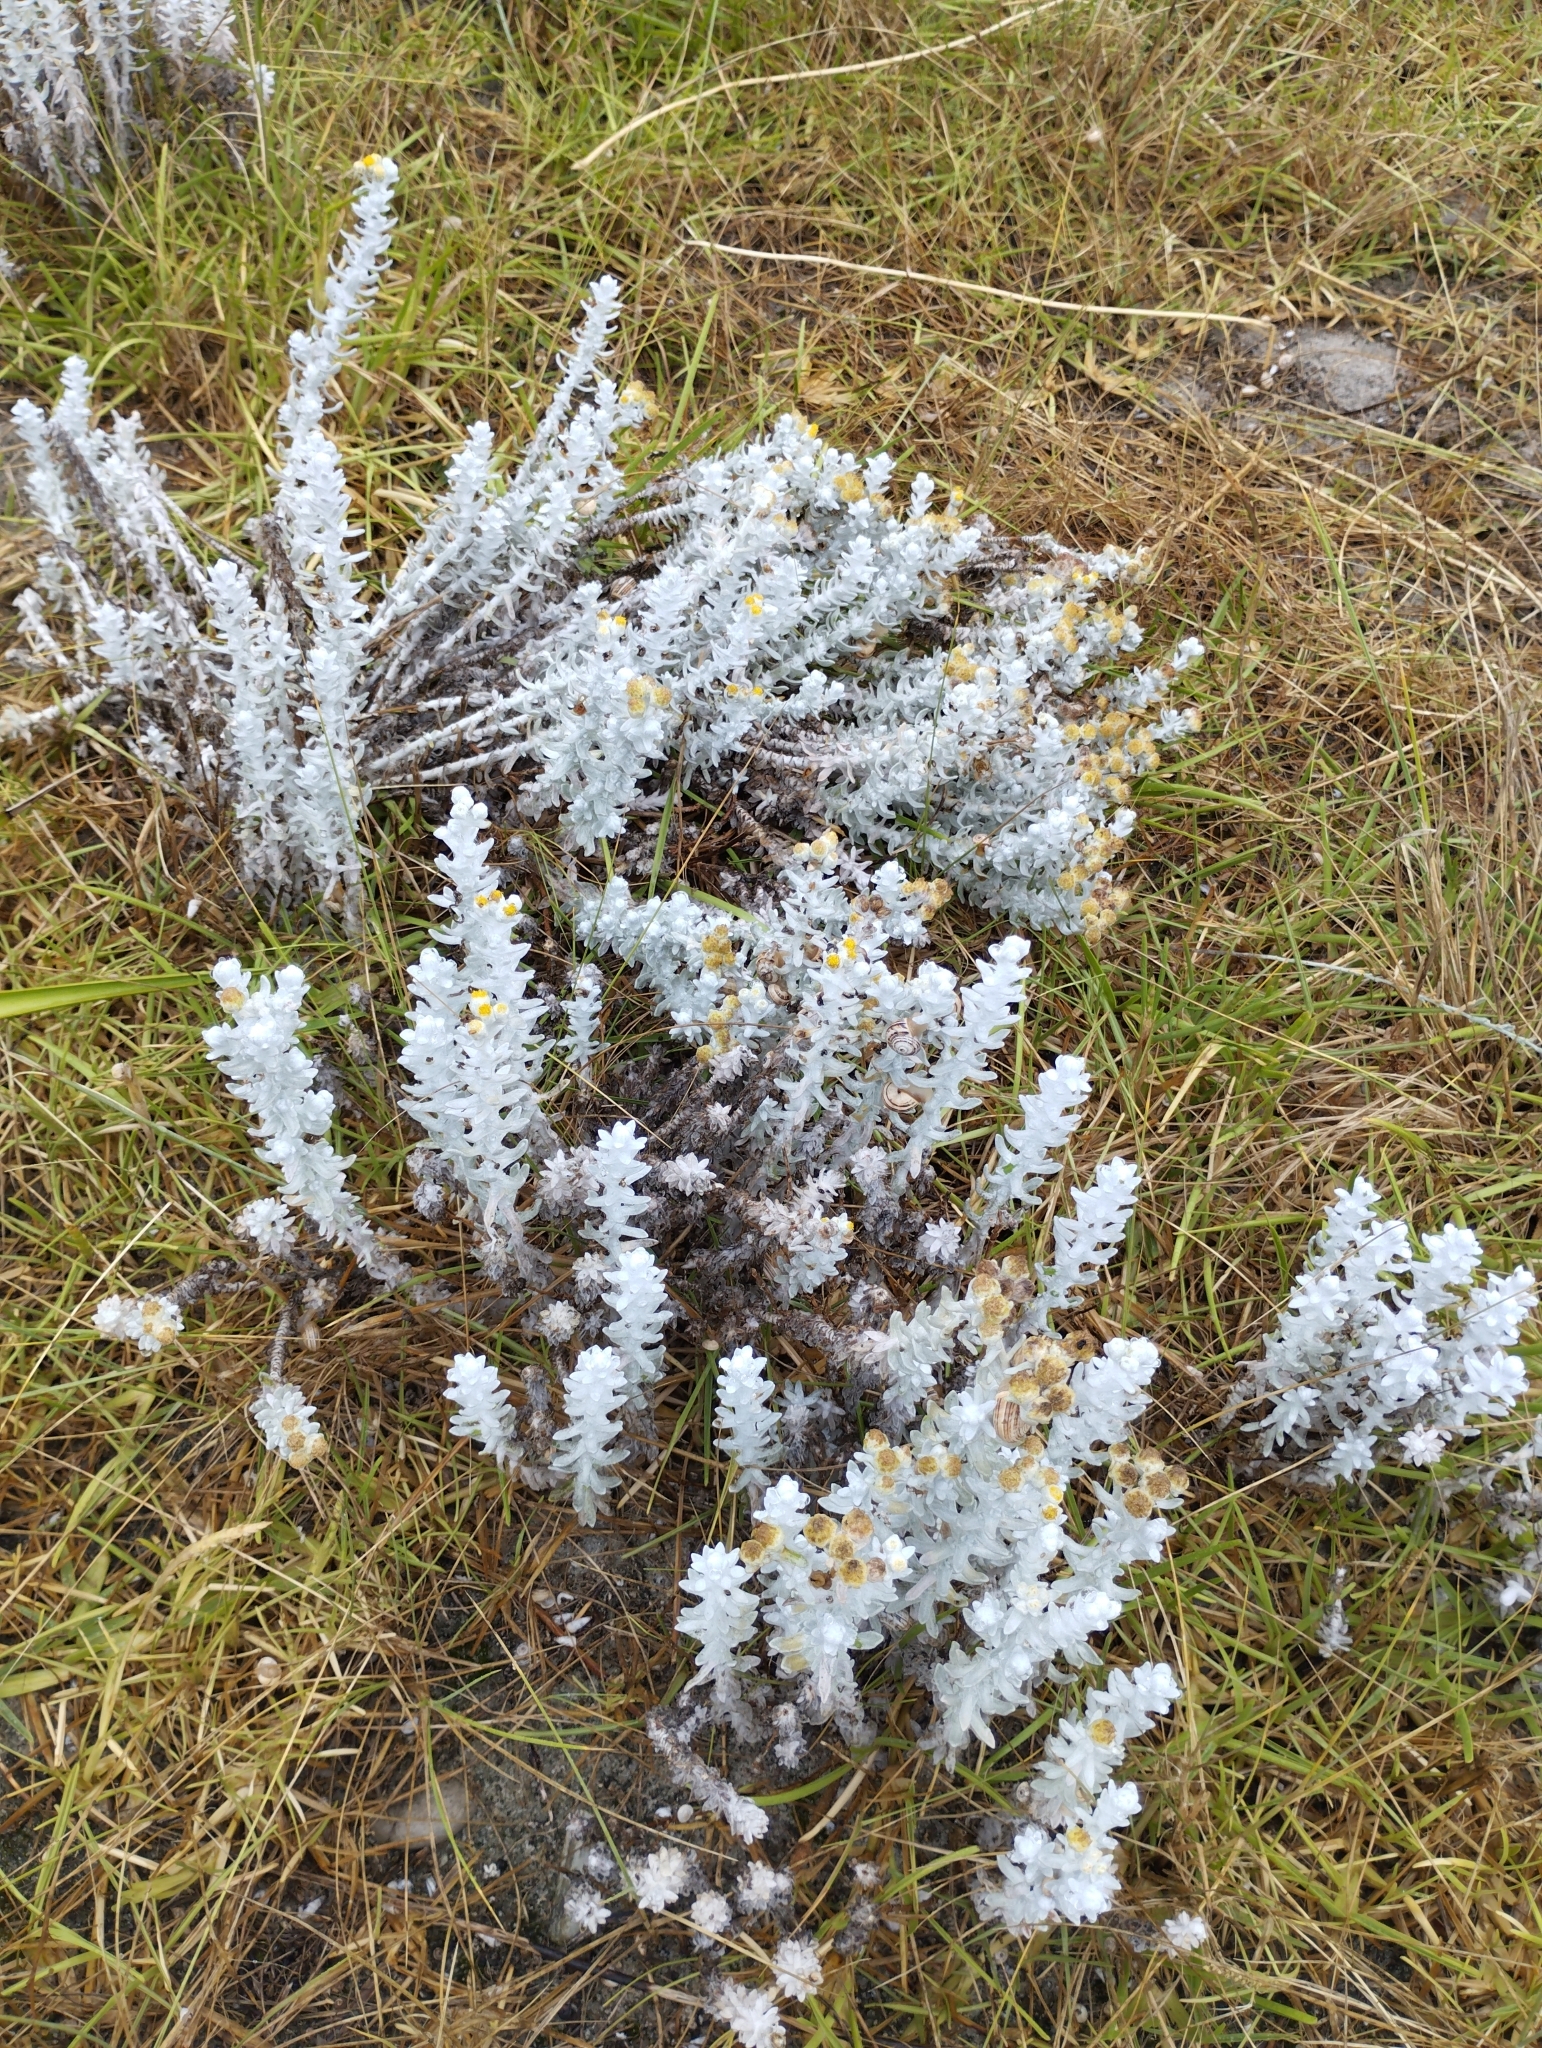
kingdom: Plantae
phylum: Tracheophyta
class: Magnoliopsida
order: Asterales
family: Asteraceae
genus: Achillea
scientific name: Achillea maritima
